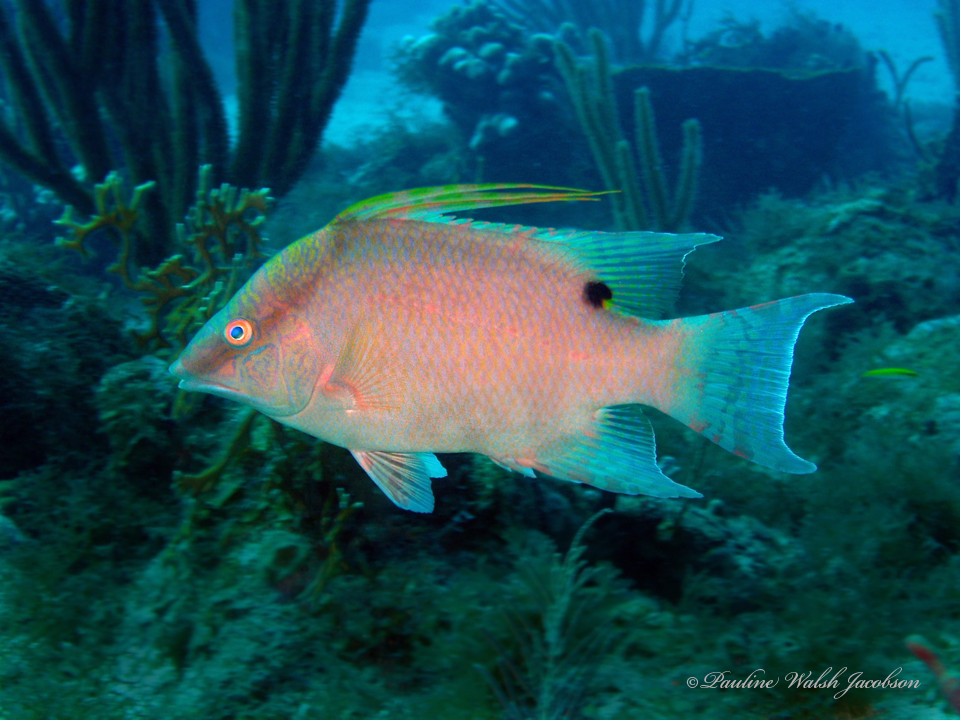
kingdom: Animalia
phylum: Chordata
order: Perciformes
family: Labridae
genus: Lachnolaimus
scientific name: Lachnolaimus maximus
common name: Hogfish
